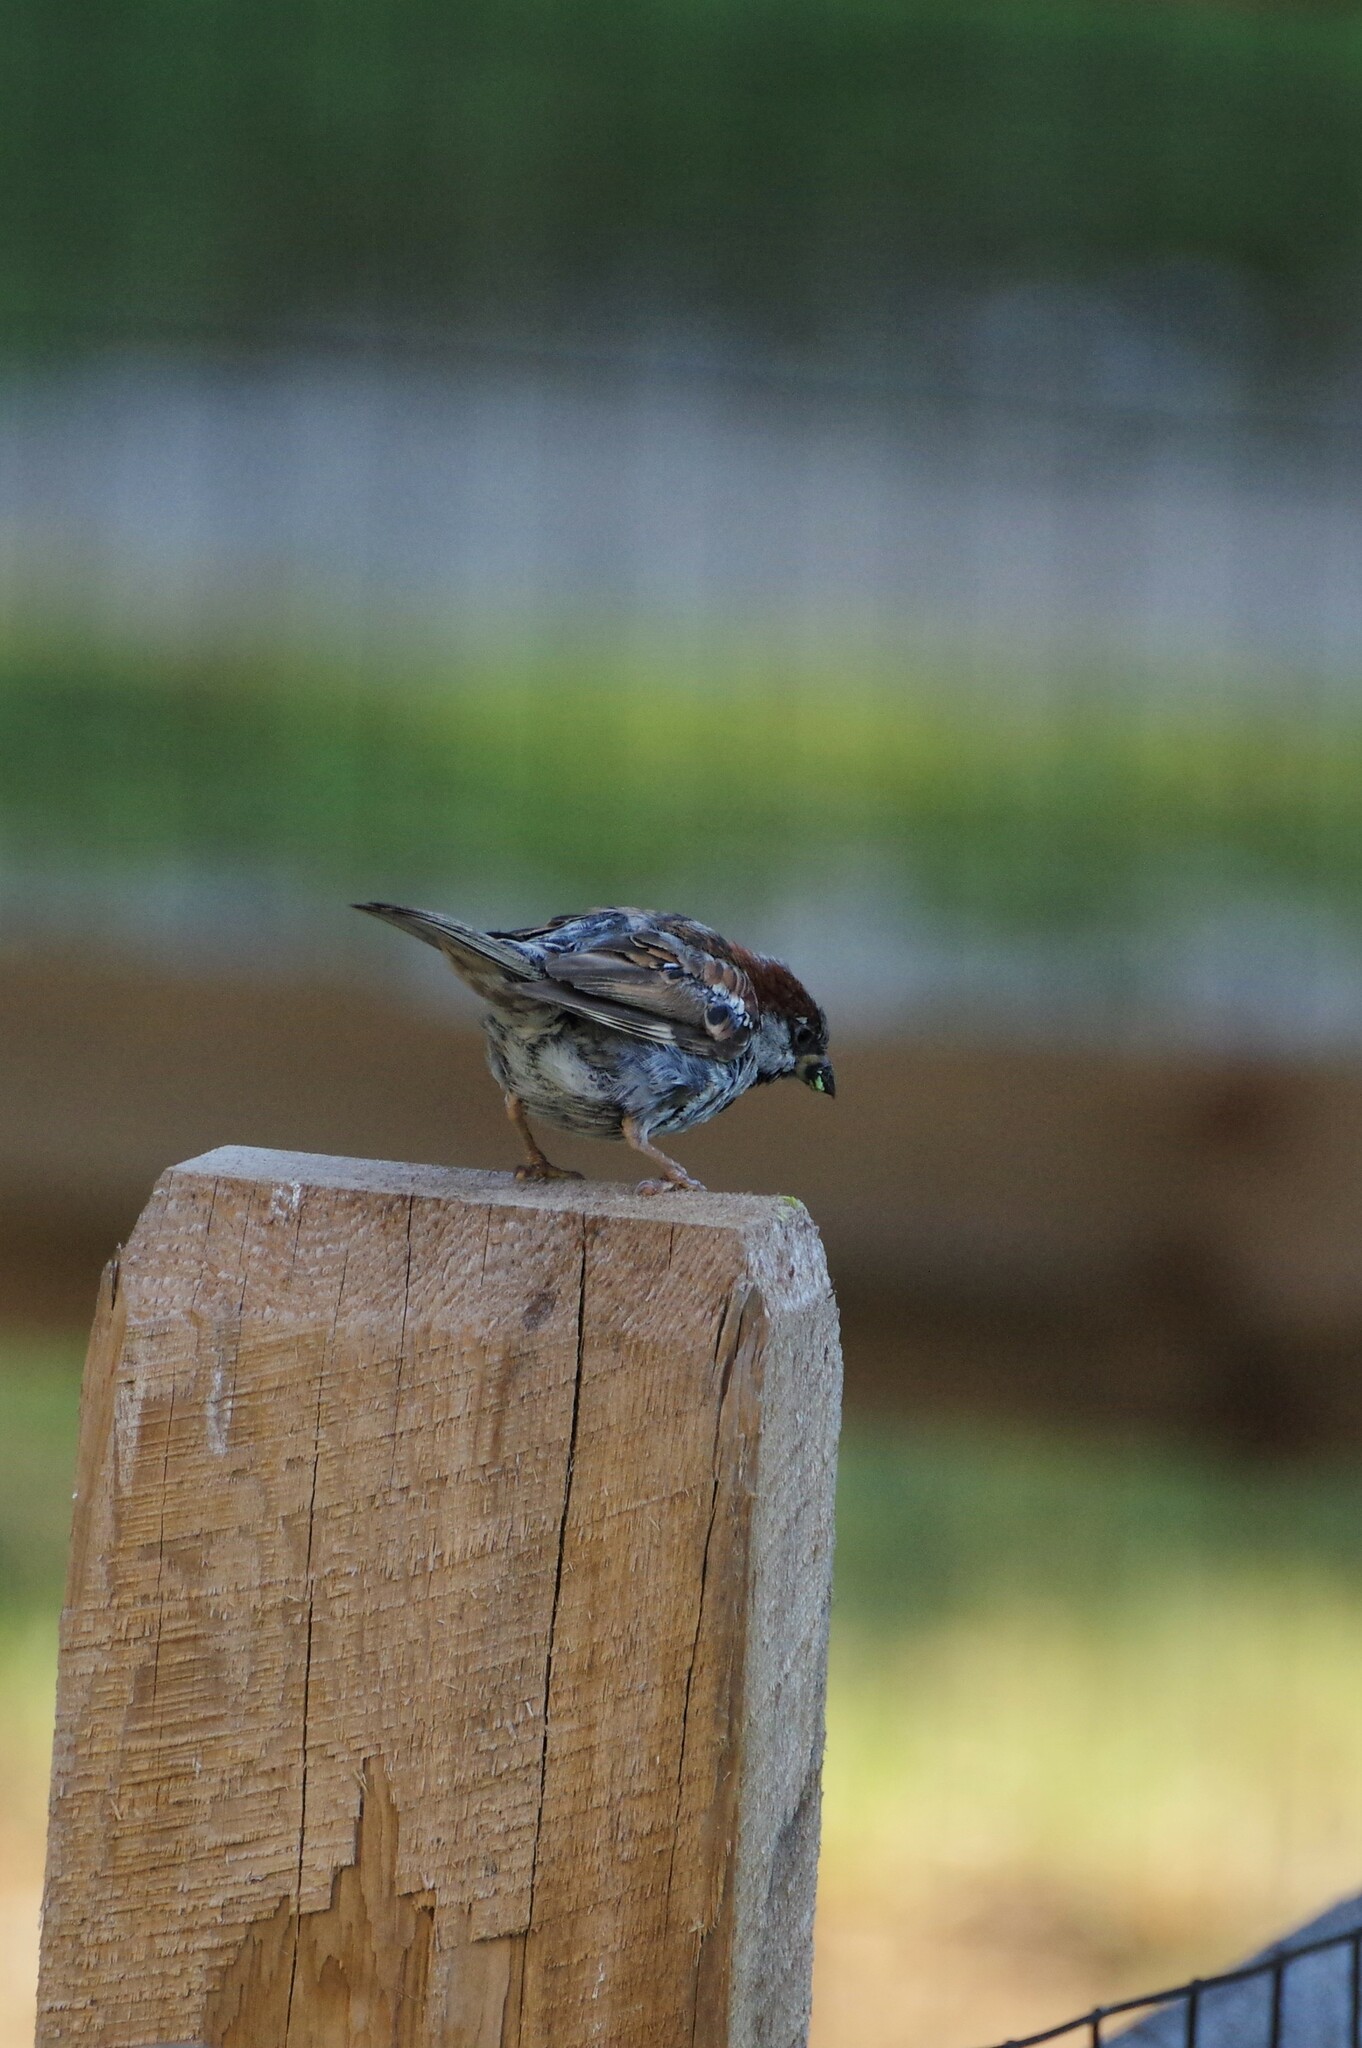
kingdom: Animalia
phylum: Chordata
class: Aves
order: Passeriformes
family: Passeridae
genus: Passer
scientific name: Passer domesticus
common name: House sparrow
